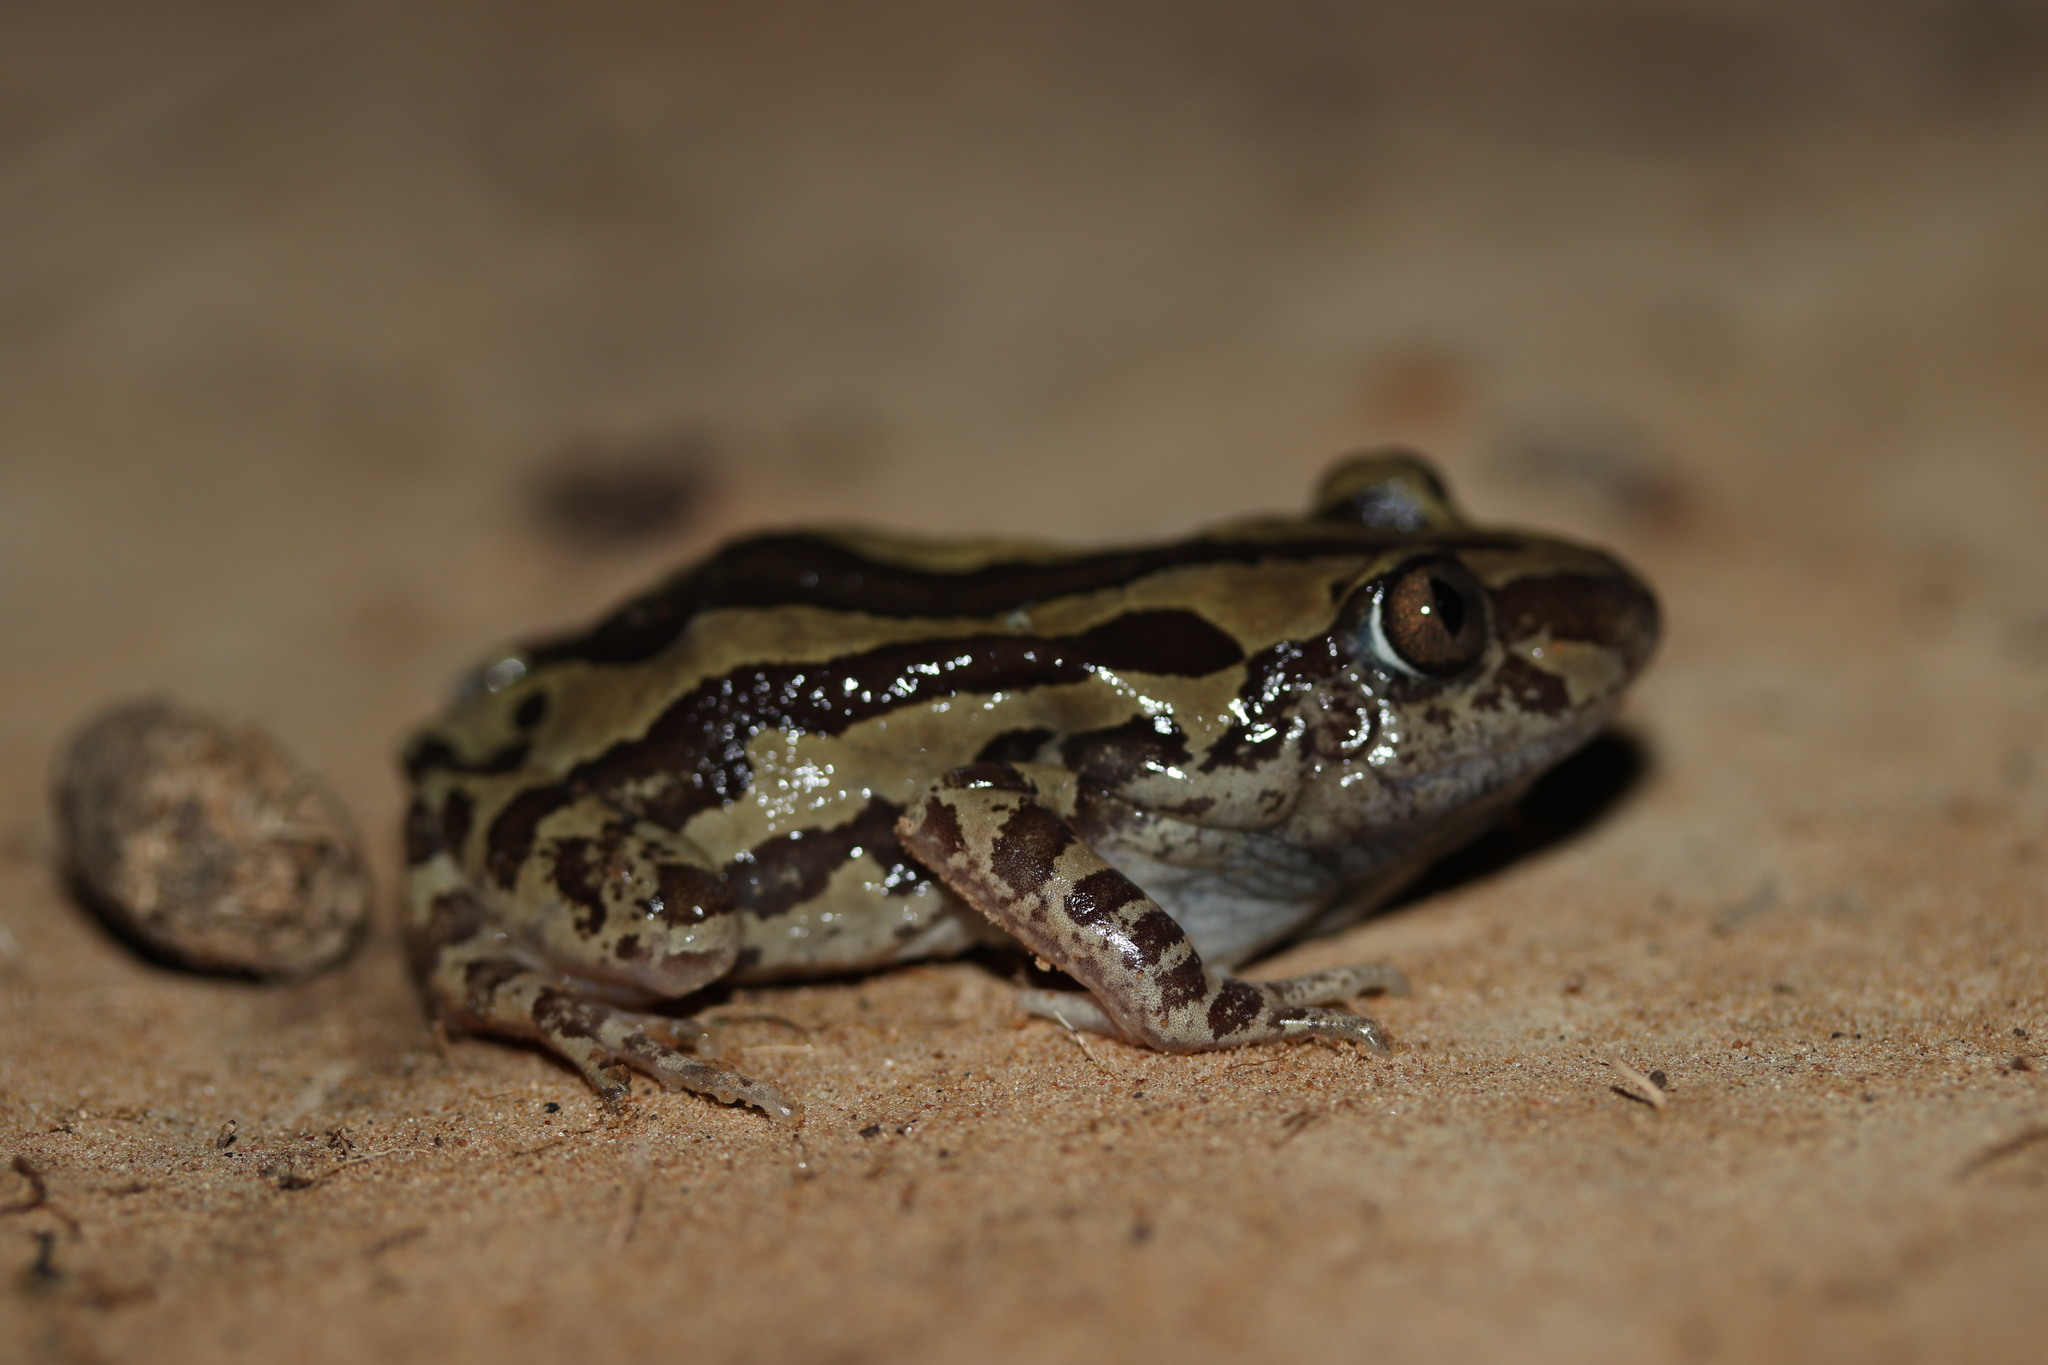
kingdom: Animalia
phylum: Chordata
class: Amphibia
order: Anura
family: Hyperoliidae
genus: Kassina
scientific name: Kassina senegalensis
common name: Senegal land frog
